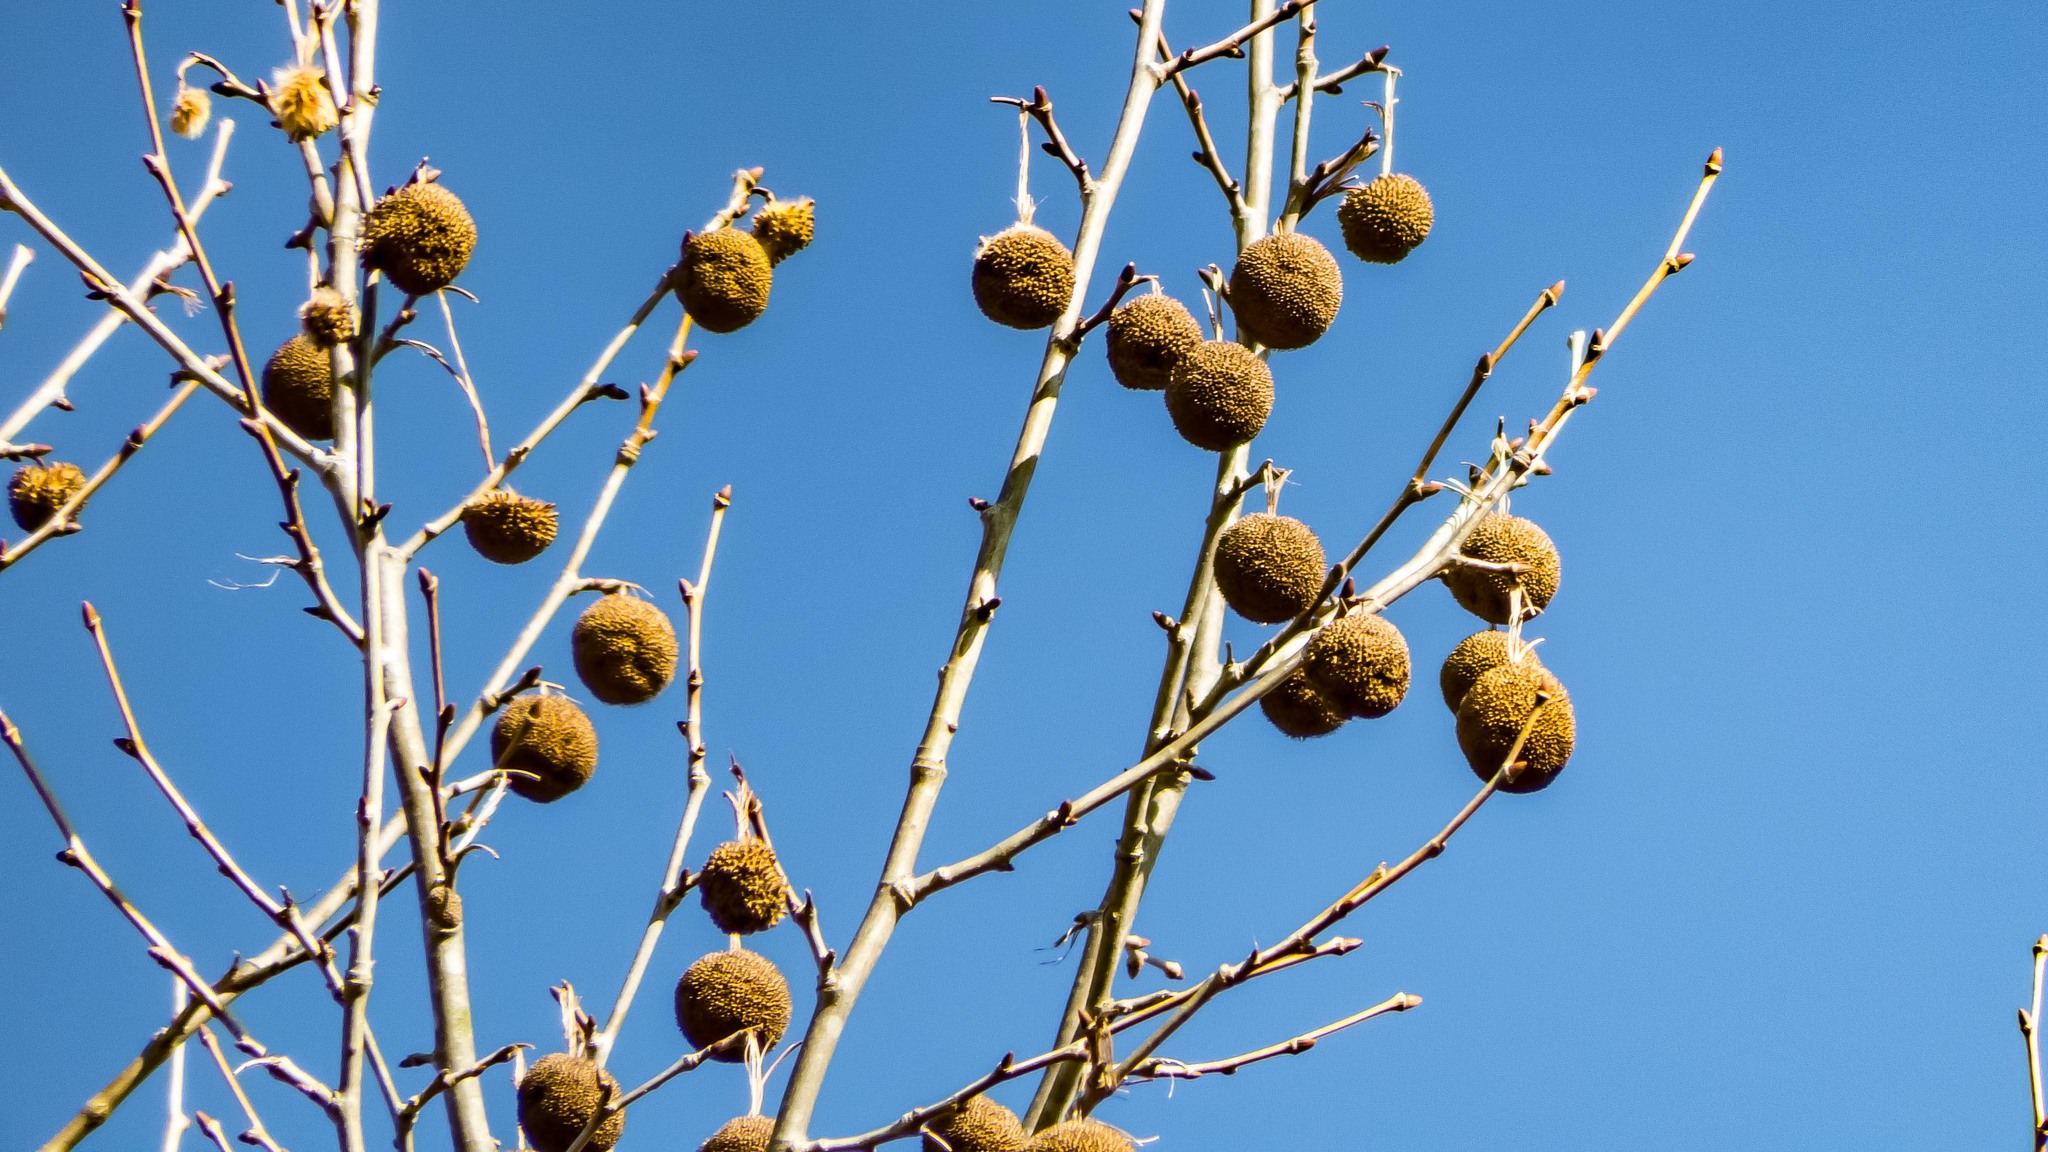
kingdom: Plantae
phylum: Tracheophyta
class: Magnoliopsida
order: Proteales
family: Platanaceae
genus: Platanus
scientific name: Platanus occidentalis
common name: American sycamore
